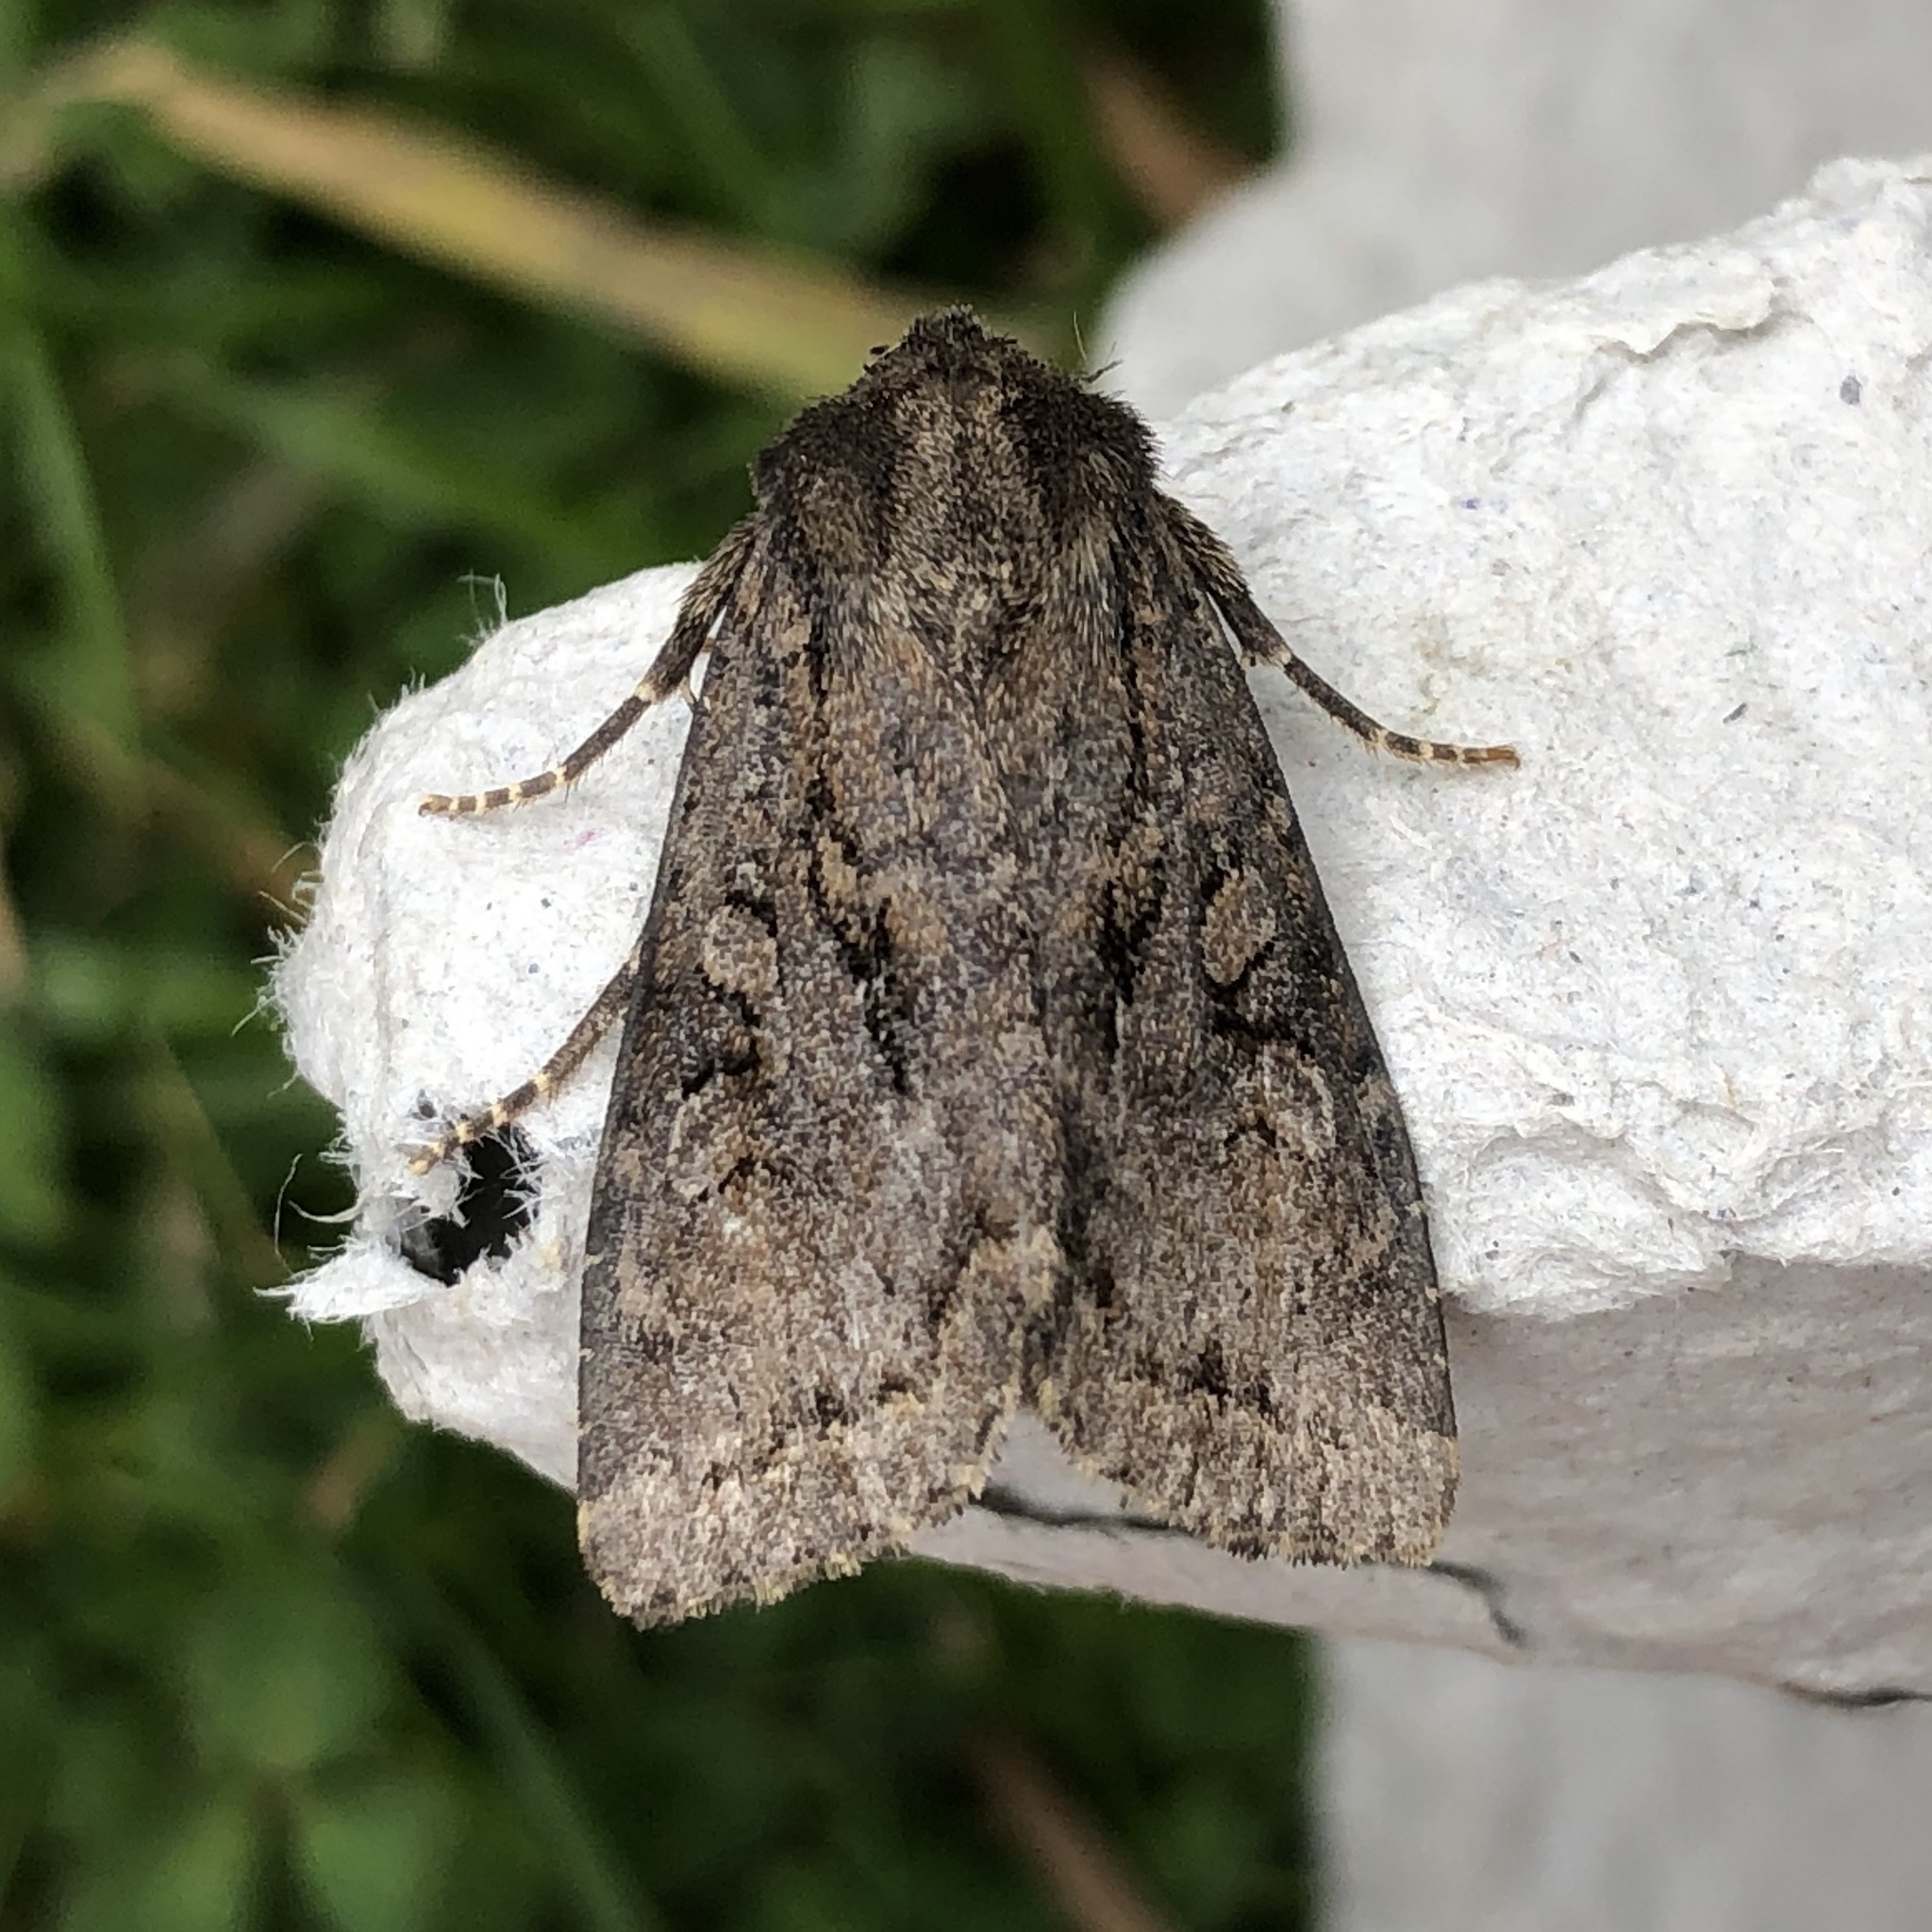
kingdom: Animalia
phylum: Arthropoda
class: Insecta
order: Lepidoptera
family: Noctuidae
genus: Apterogenum
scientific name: Apterogenum ypsillon
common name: Dingy shears
